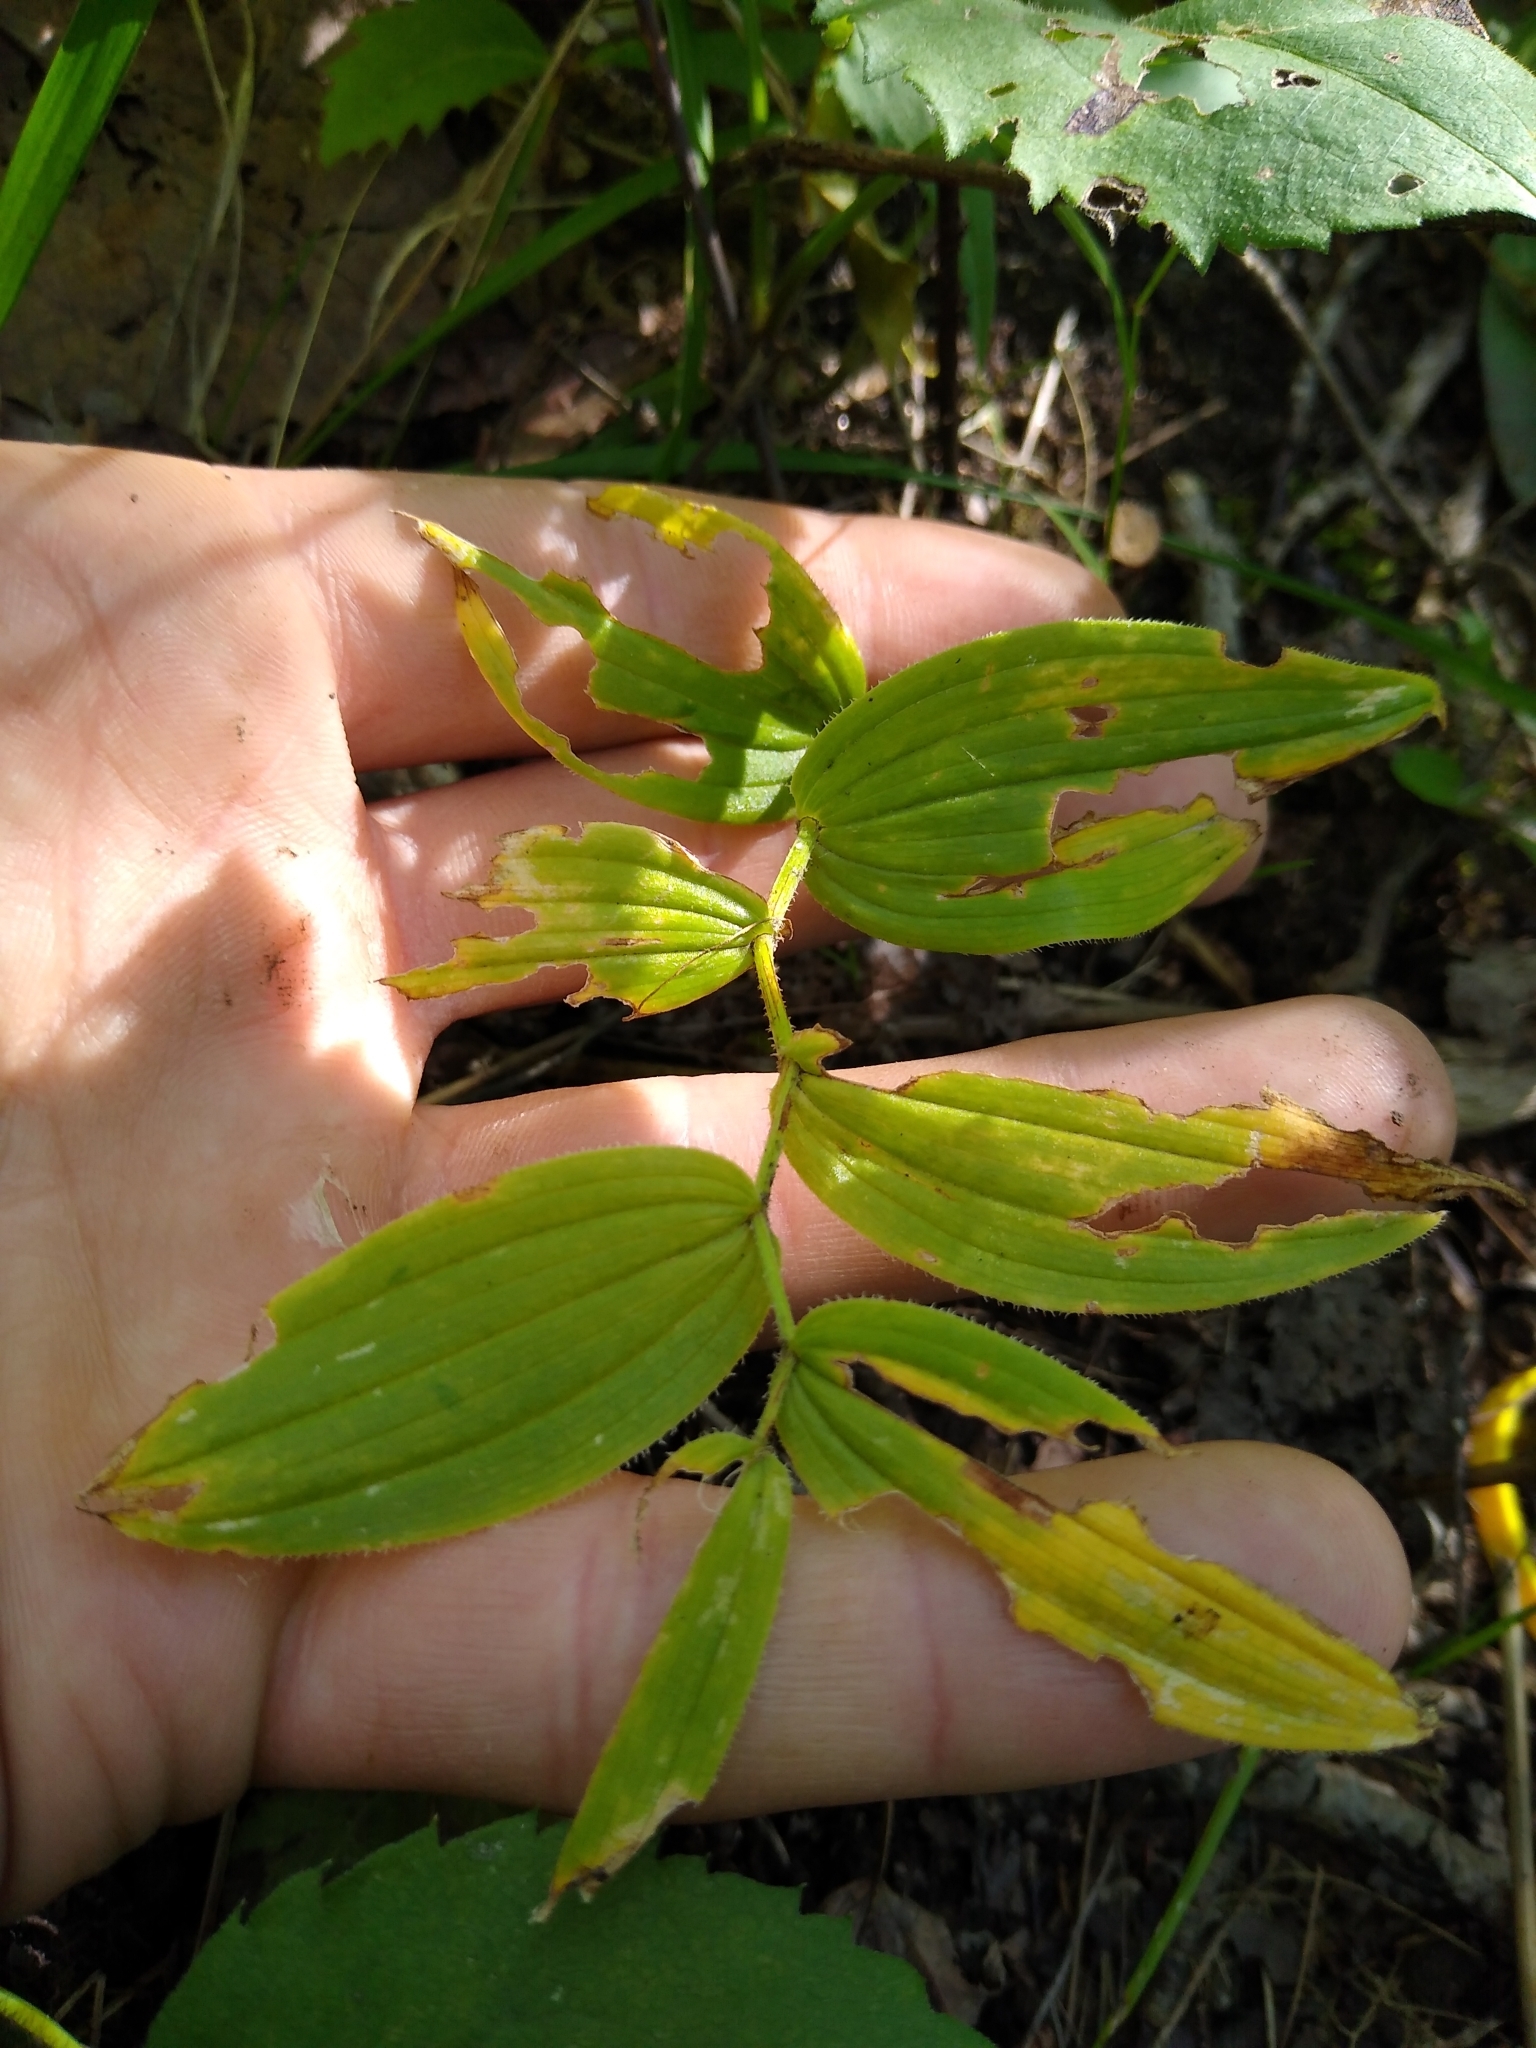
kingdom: Plantae
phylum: Tracheophyta
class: Liliopsida
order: Liliales
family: Liliaceae
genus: Streptopus
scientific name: Streptopus lanceolatus
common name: Rose mandarin
